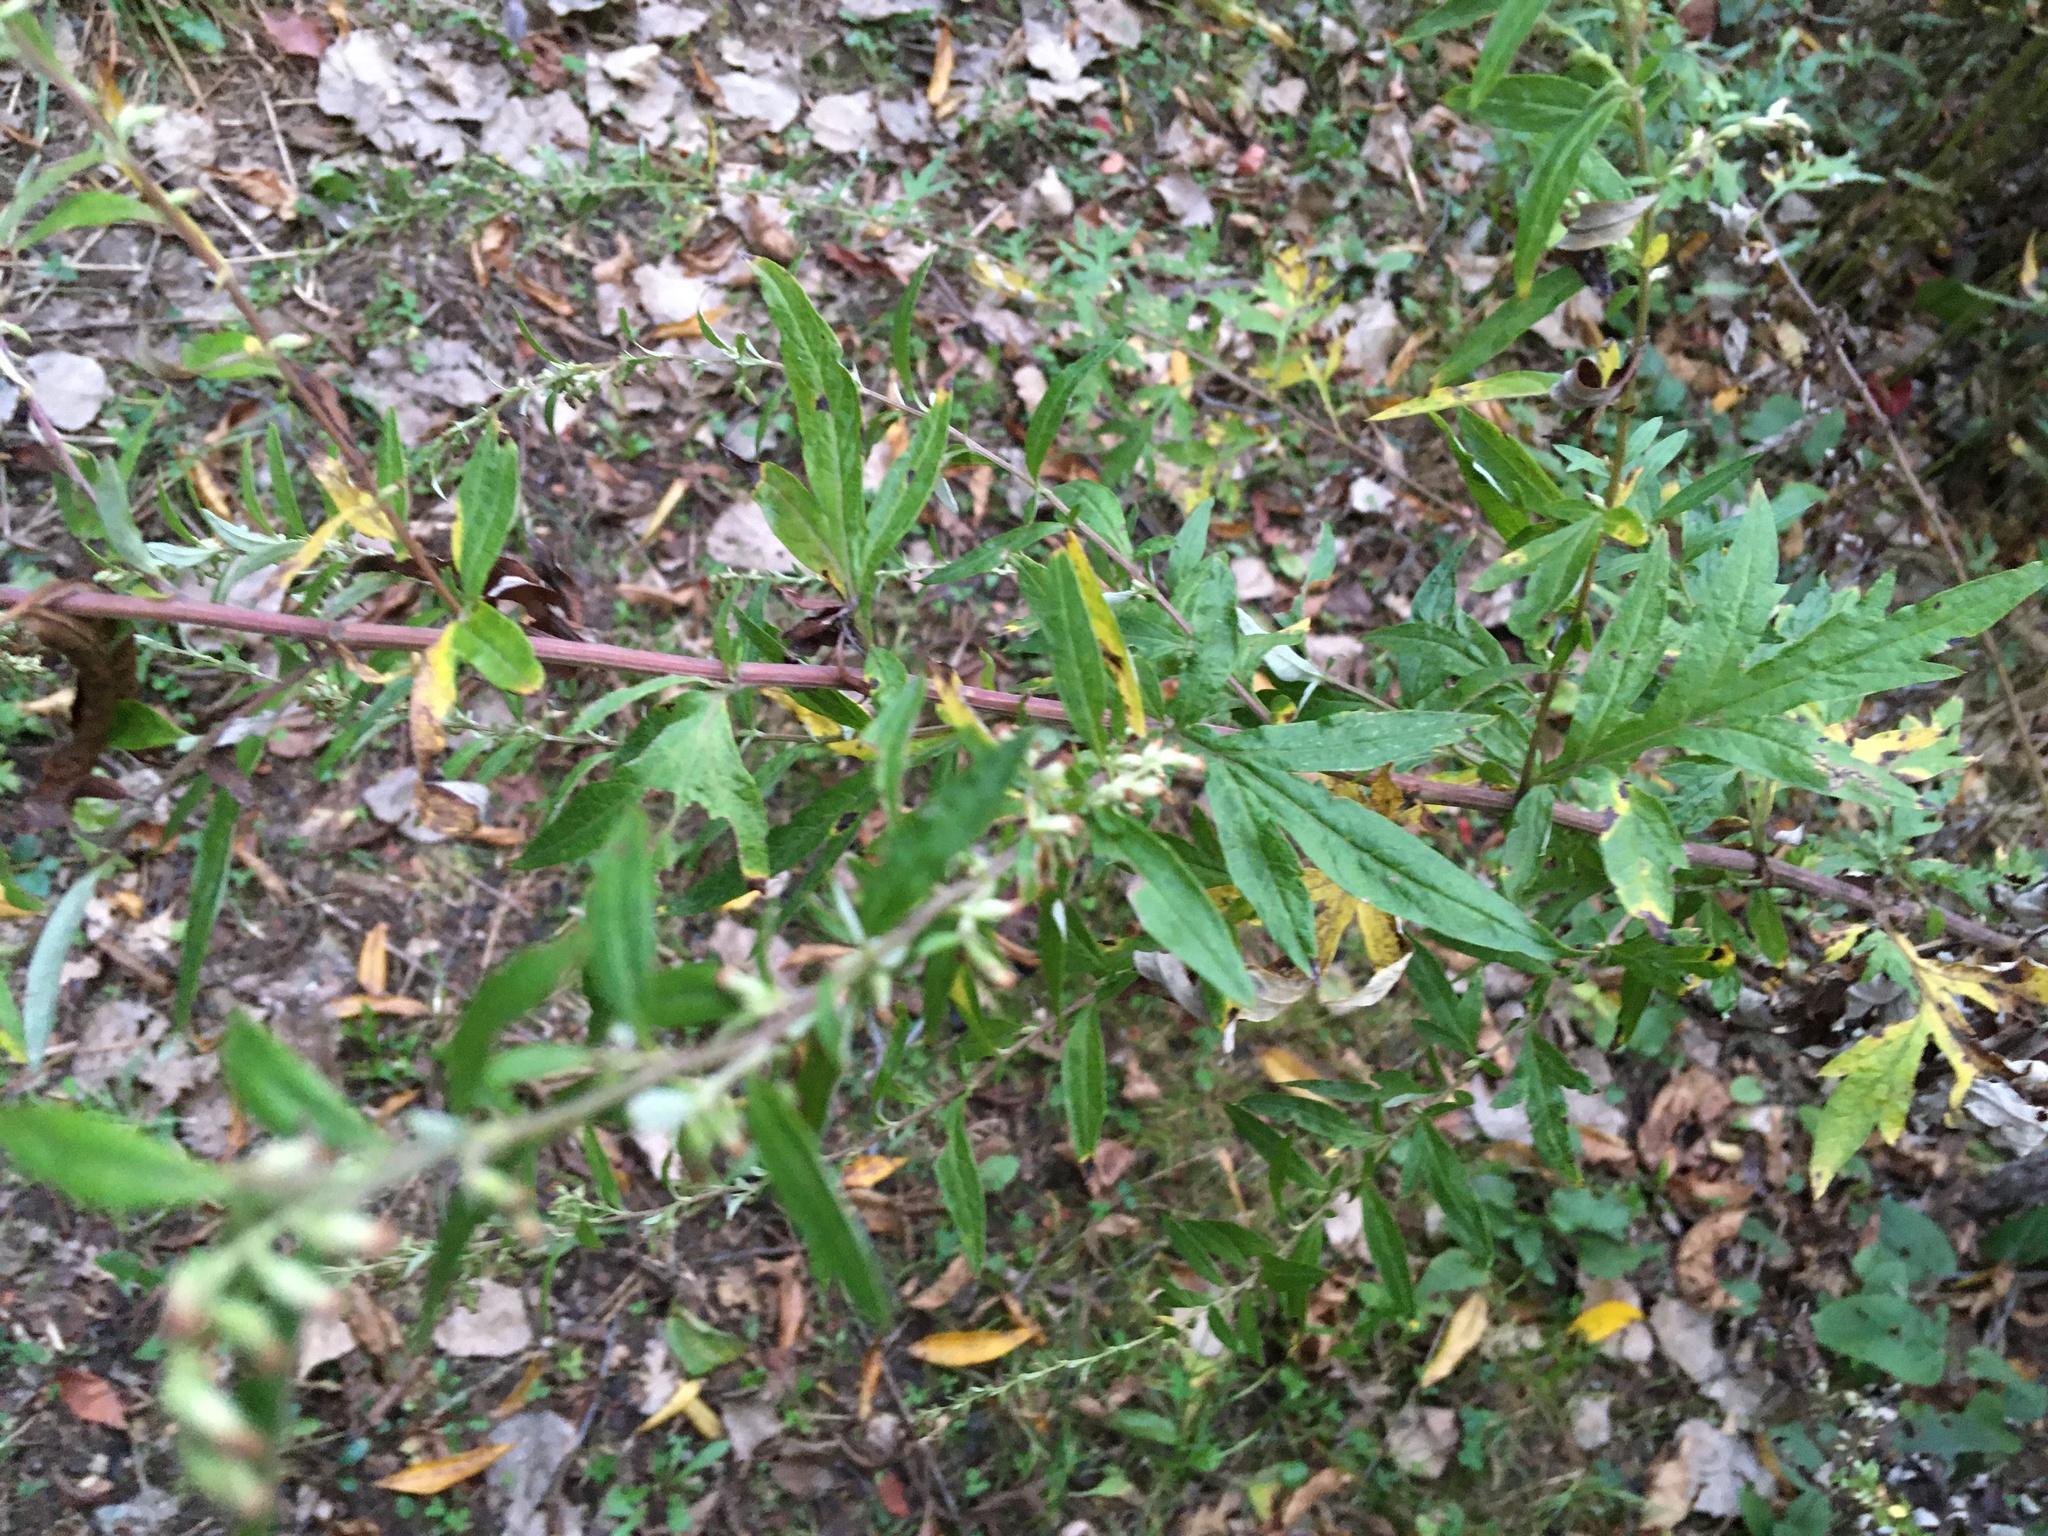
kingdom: Plantae
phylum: Tracheophyta
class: Magnoliopsida
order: Asterales
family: Asteraceae
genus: Artemisia
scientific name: Artemisia vulgaris
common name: Mugwort
